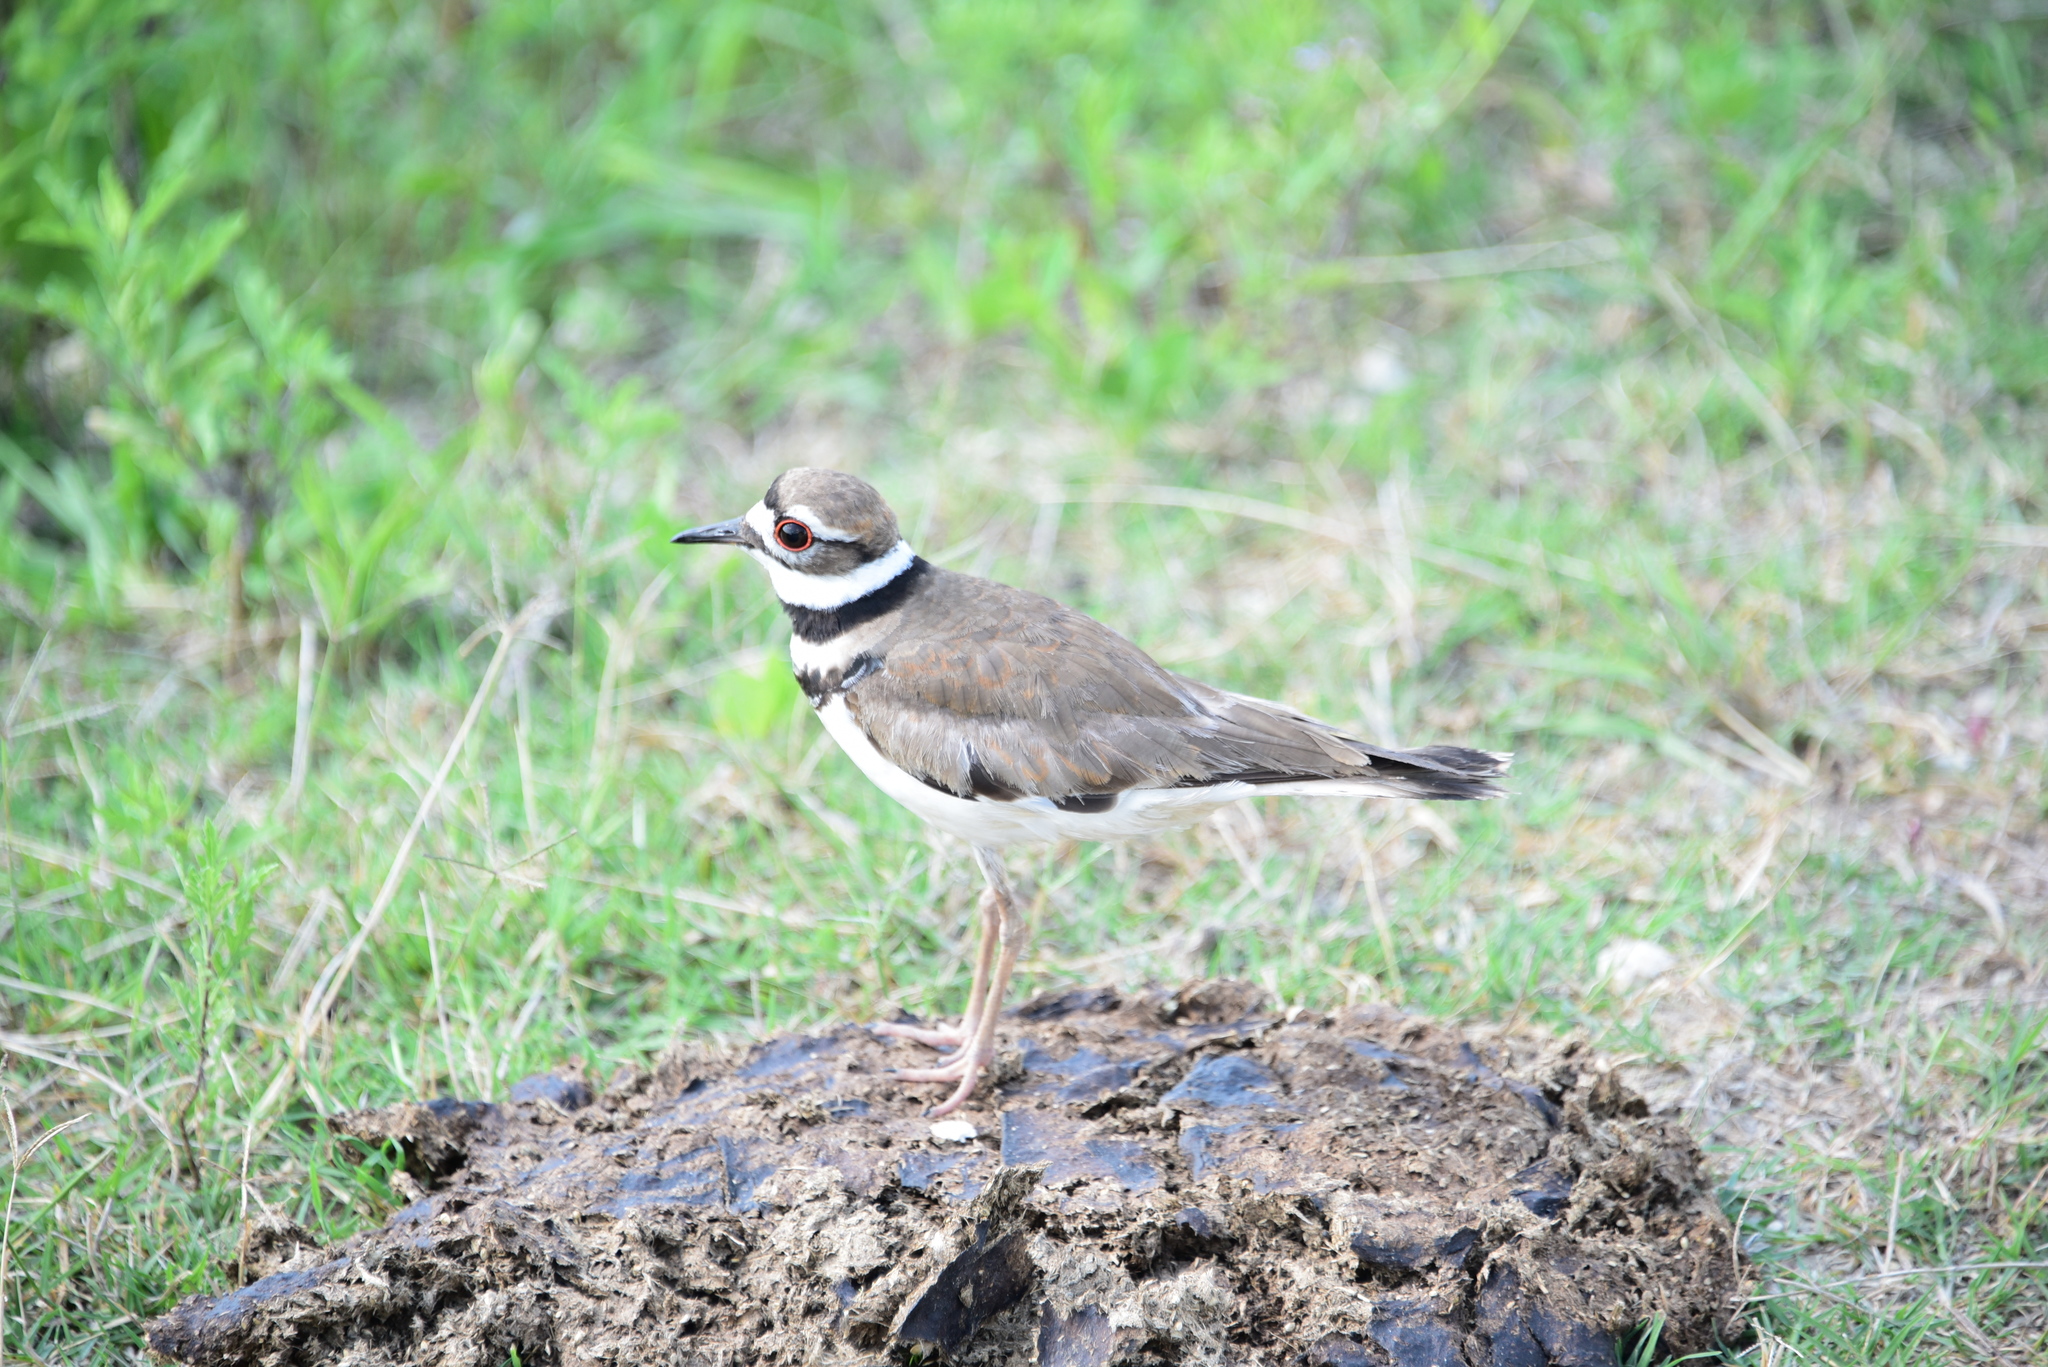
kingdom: Animalia
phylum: Chordata
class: Aves
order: Charadriiformes
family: Charadriidae
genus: Charadrius
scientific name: Charadrius vociferus
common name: Killdeer
